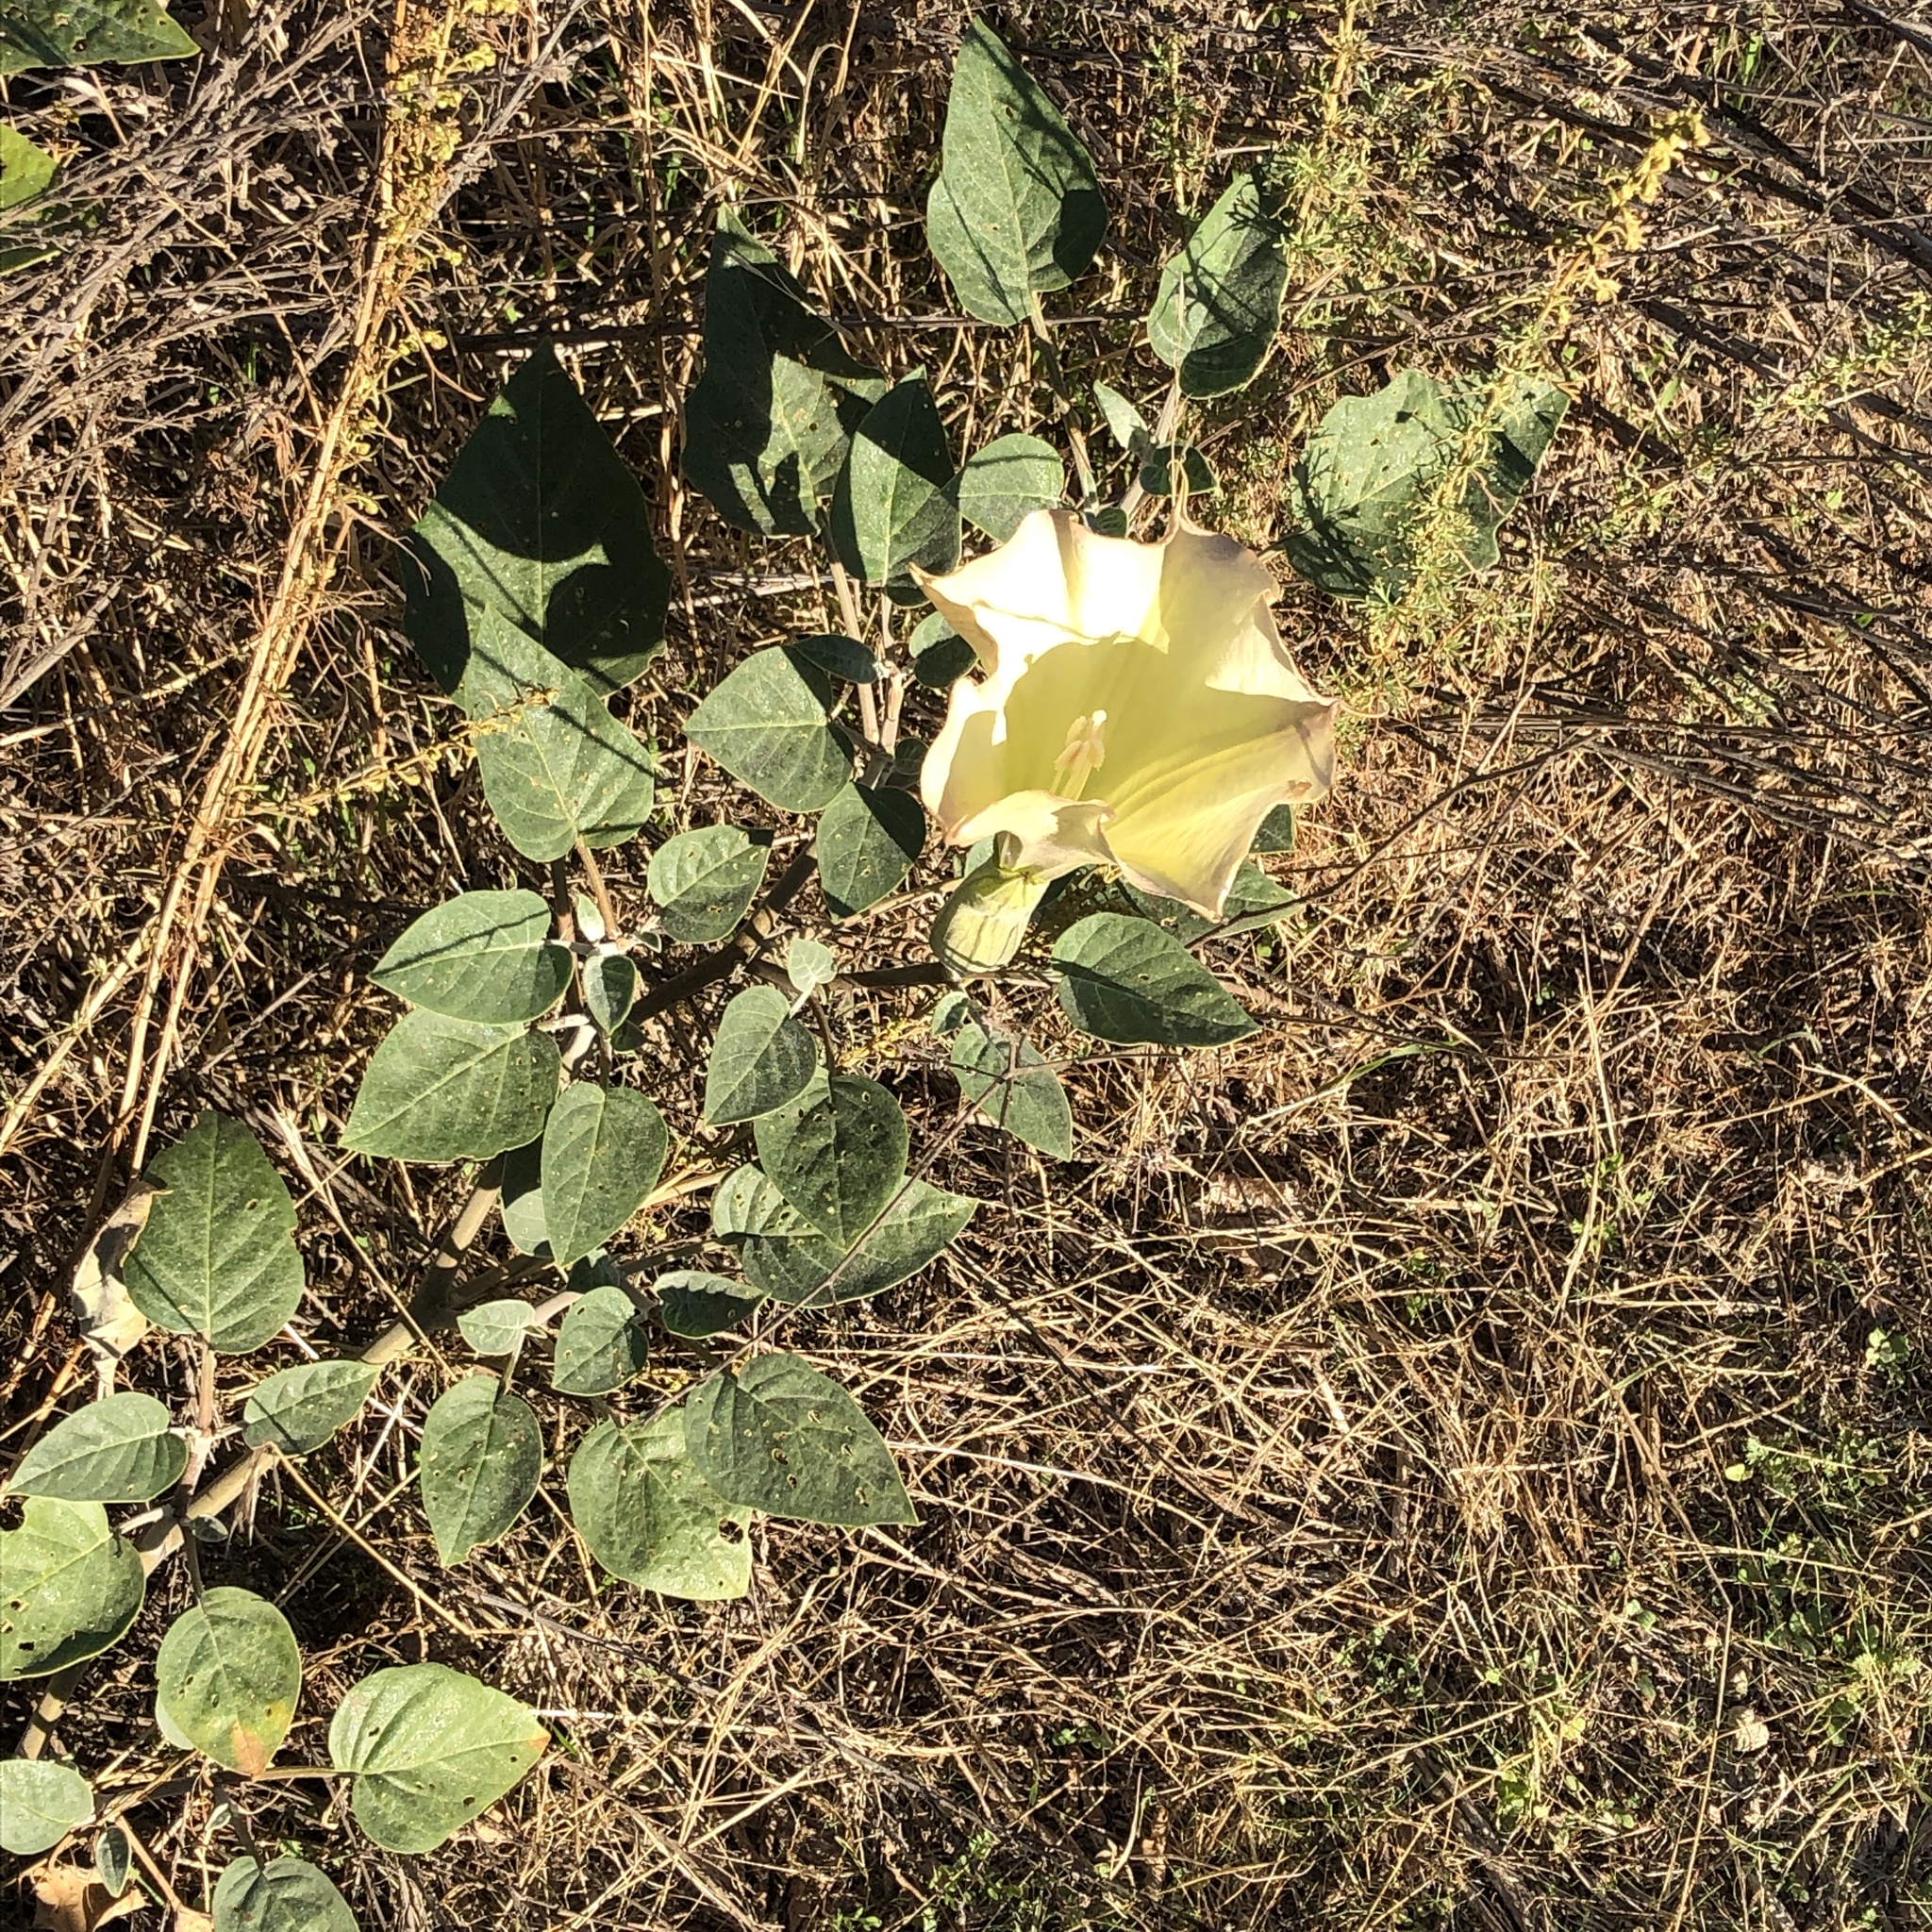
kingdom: Plantae
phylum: Tracheophyta
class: Magnoliopsida
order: Solanales
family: Solanaceae
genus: Datura
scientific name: Datura wrightii
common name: Sacred thorn-apple
